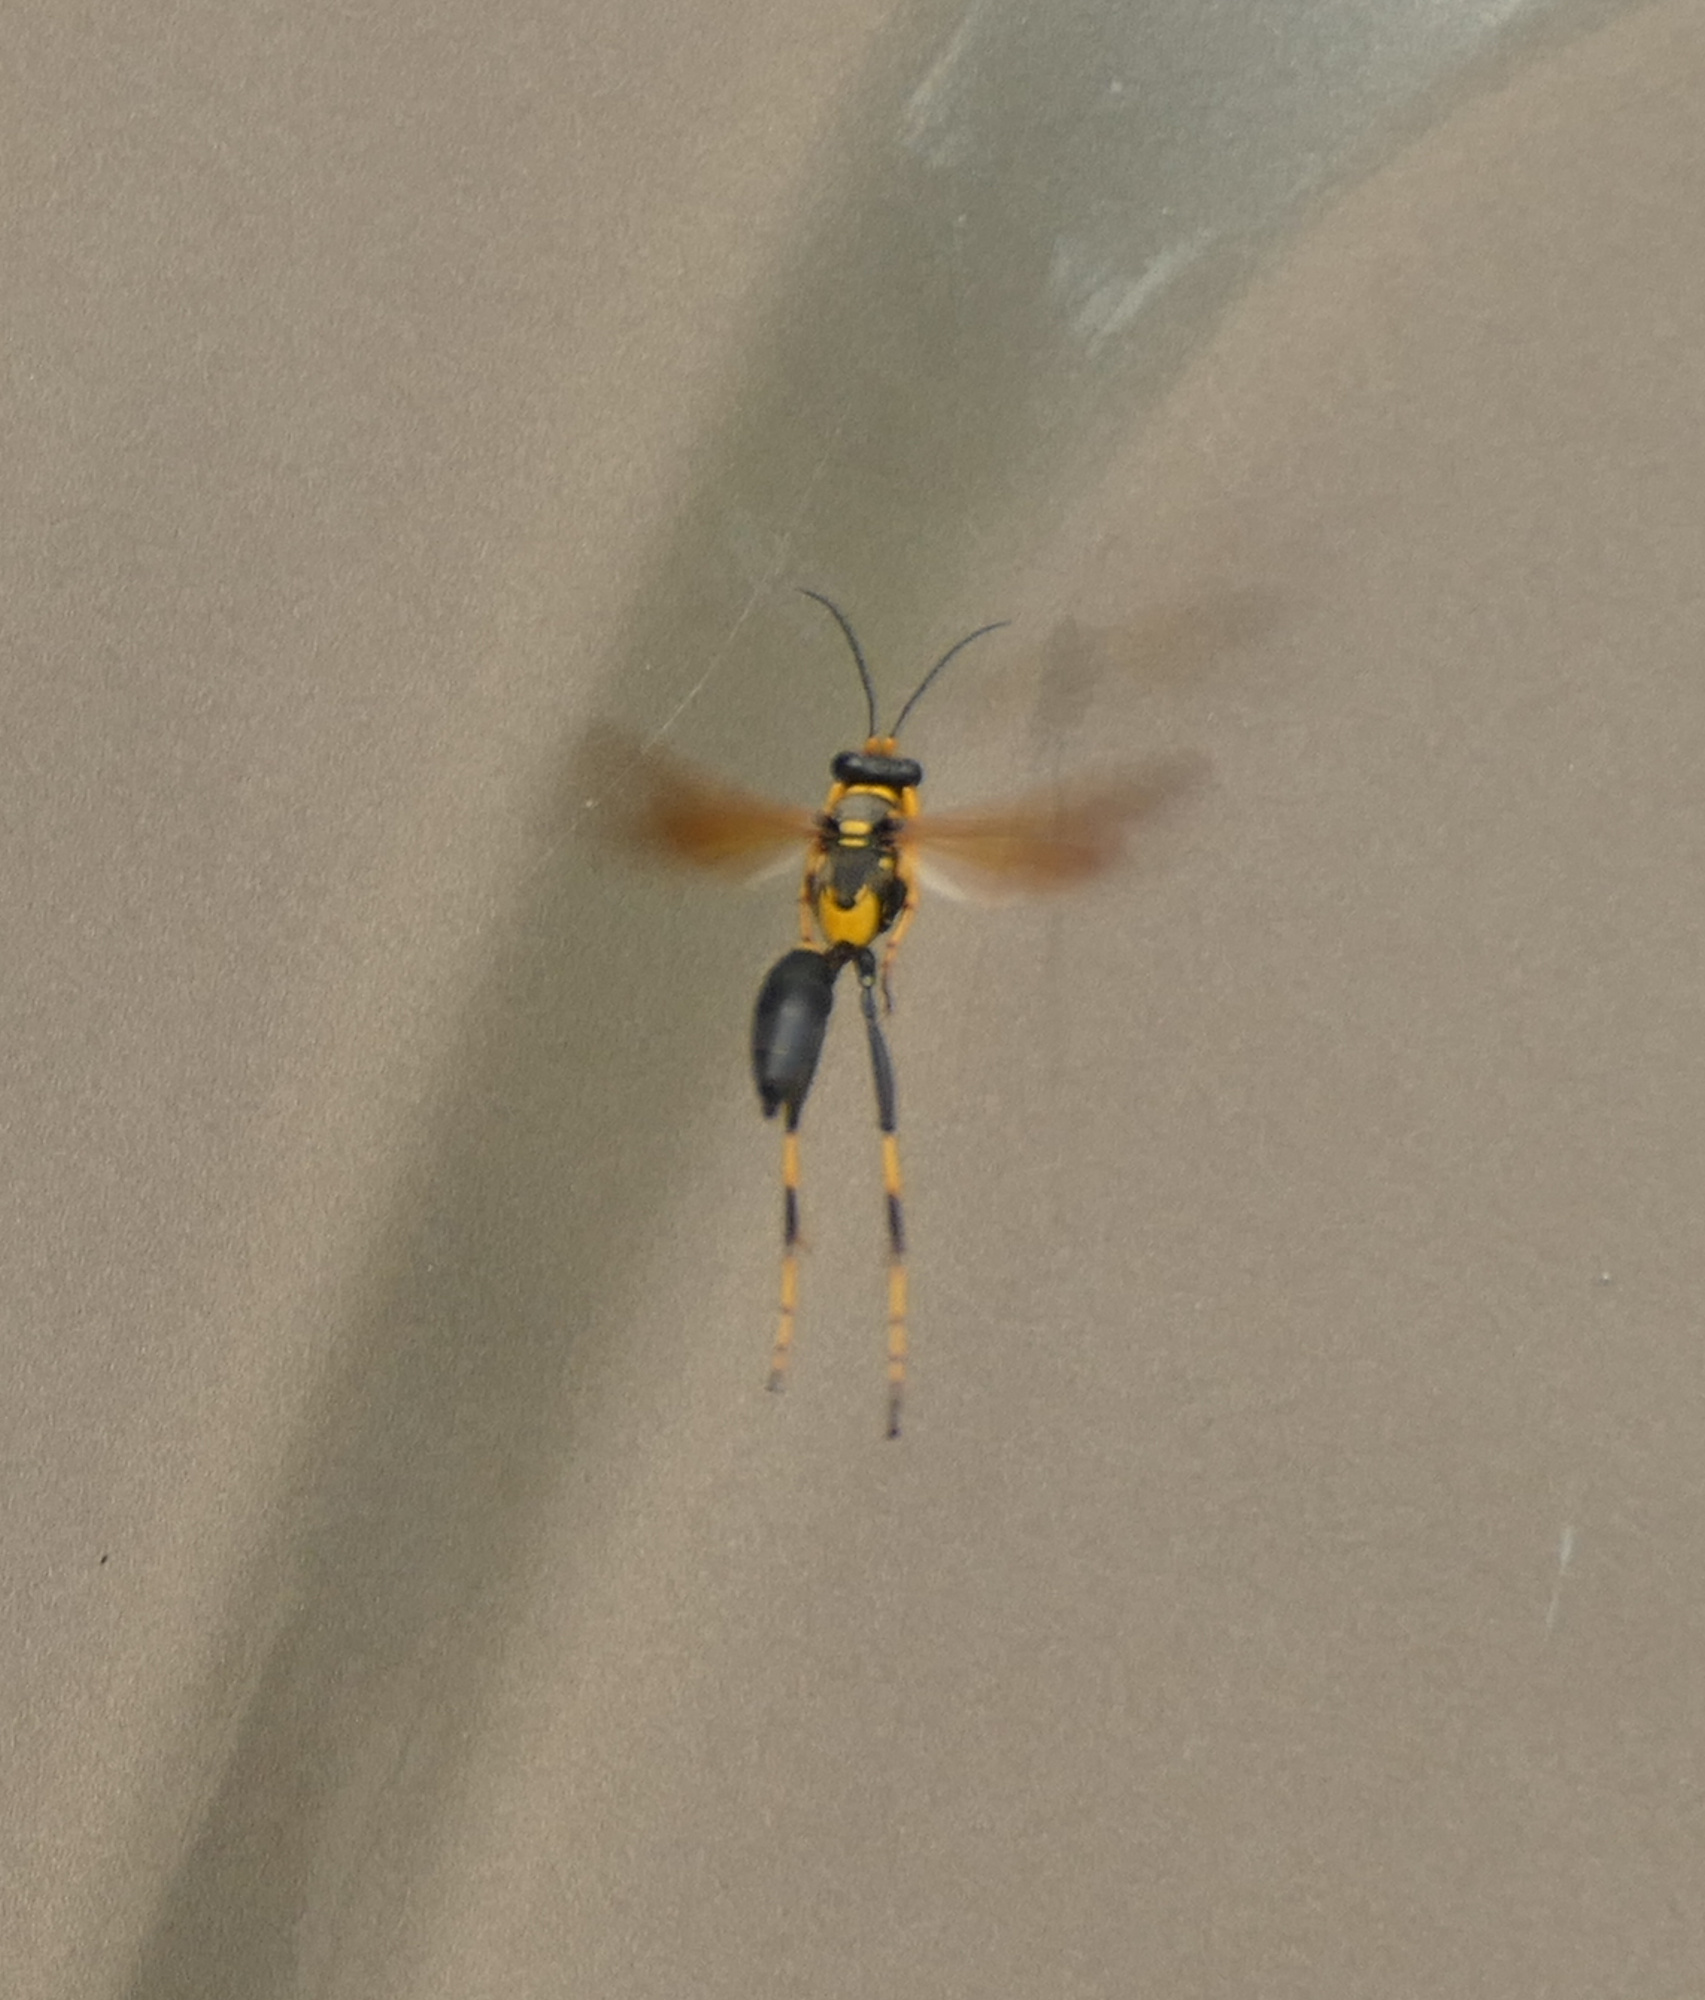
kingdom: Animalia
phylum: Arthropoda
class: Insecta
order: Hymenoptera
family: Sphecidae
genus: Sceliphron
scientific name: Sceliphron caementarium
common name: Mud dauber
